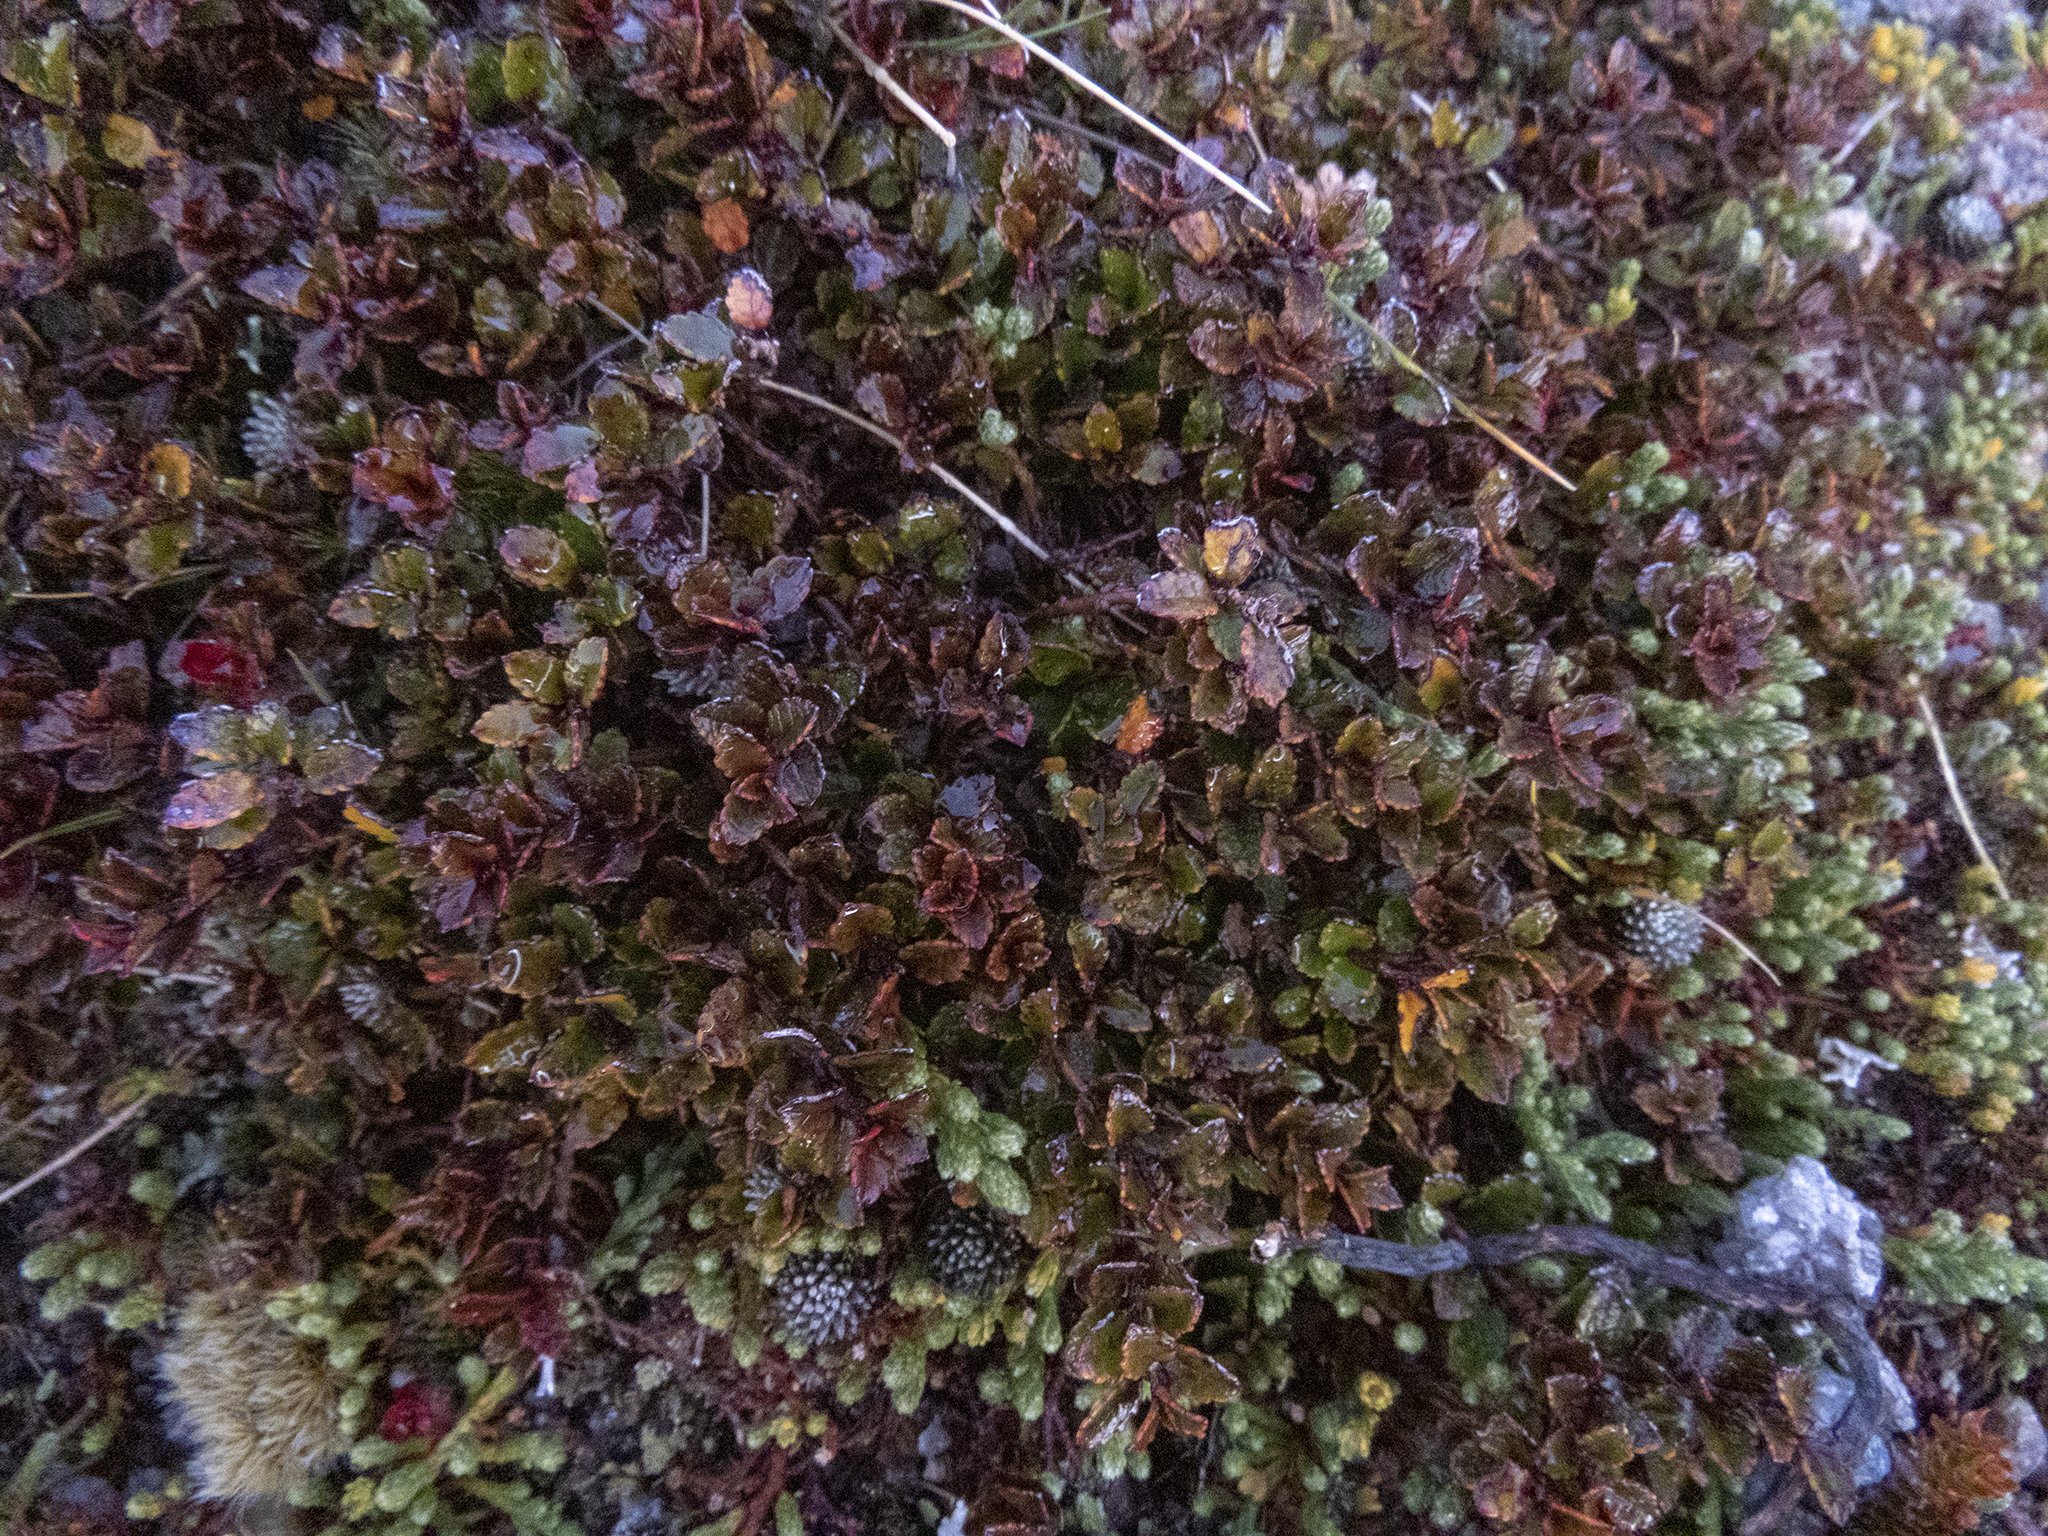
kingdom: Plantae
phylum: Tracheophyta
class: Magnoliopsida
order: Ericales
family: Ericaceae
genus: Gaultheria
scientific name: Gaultheria depressa
